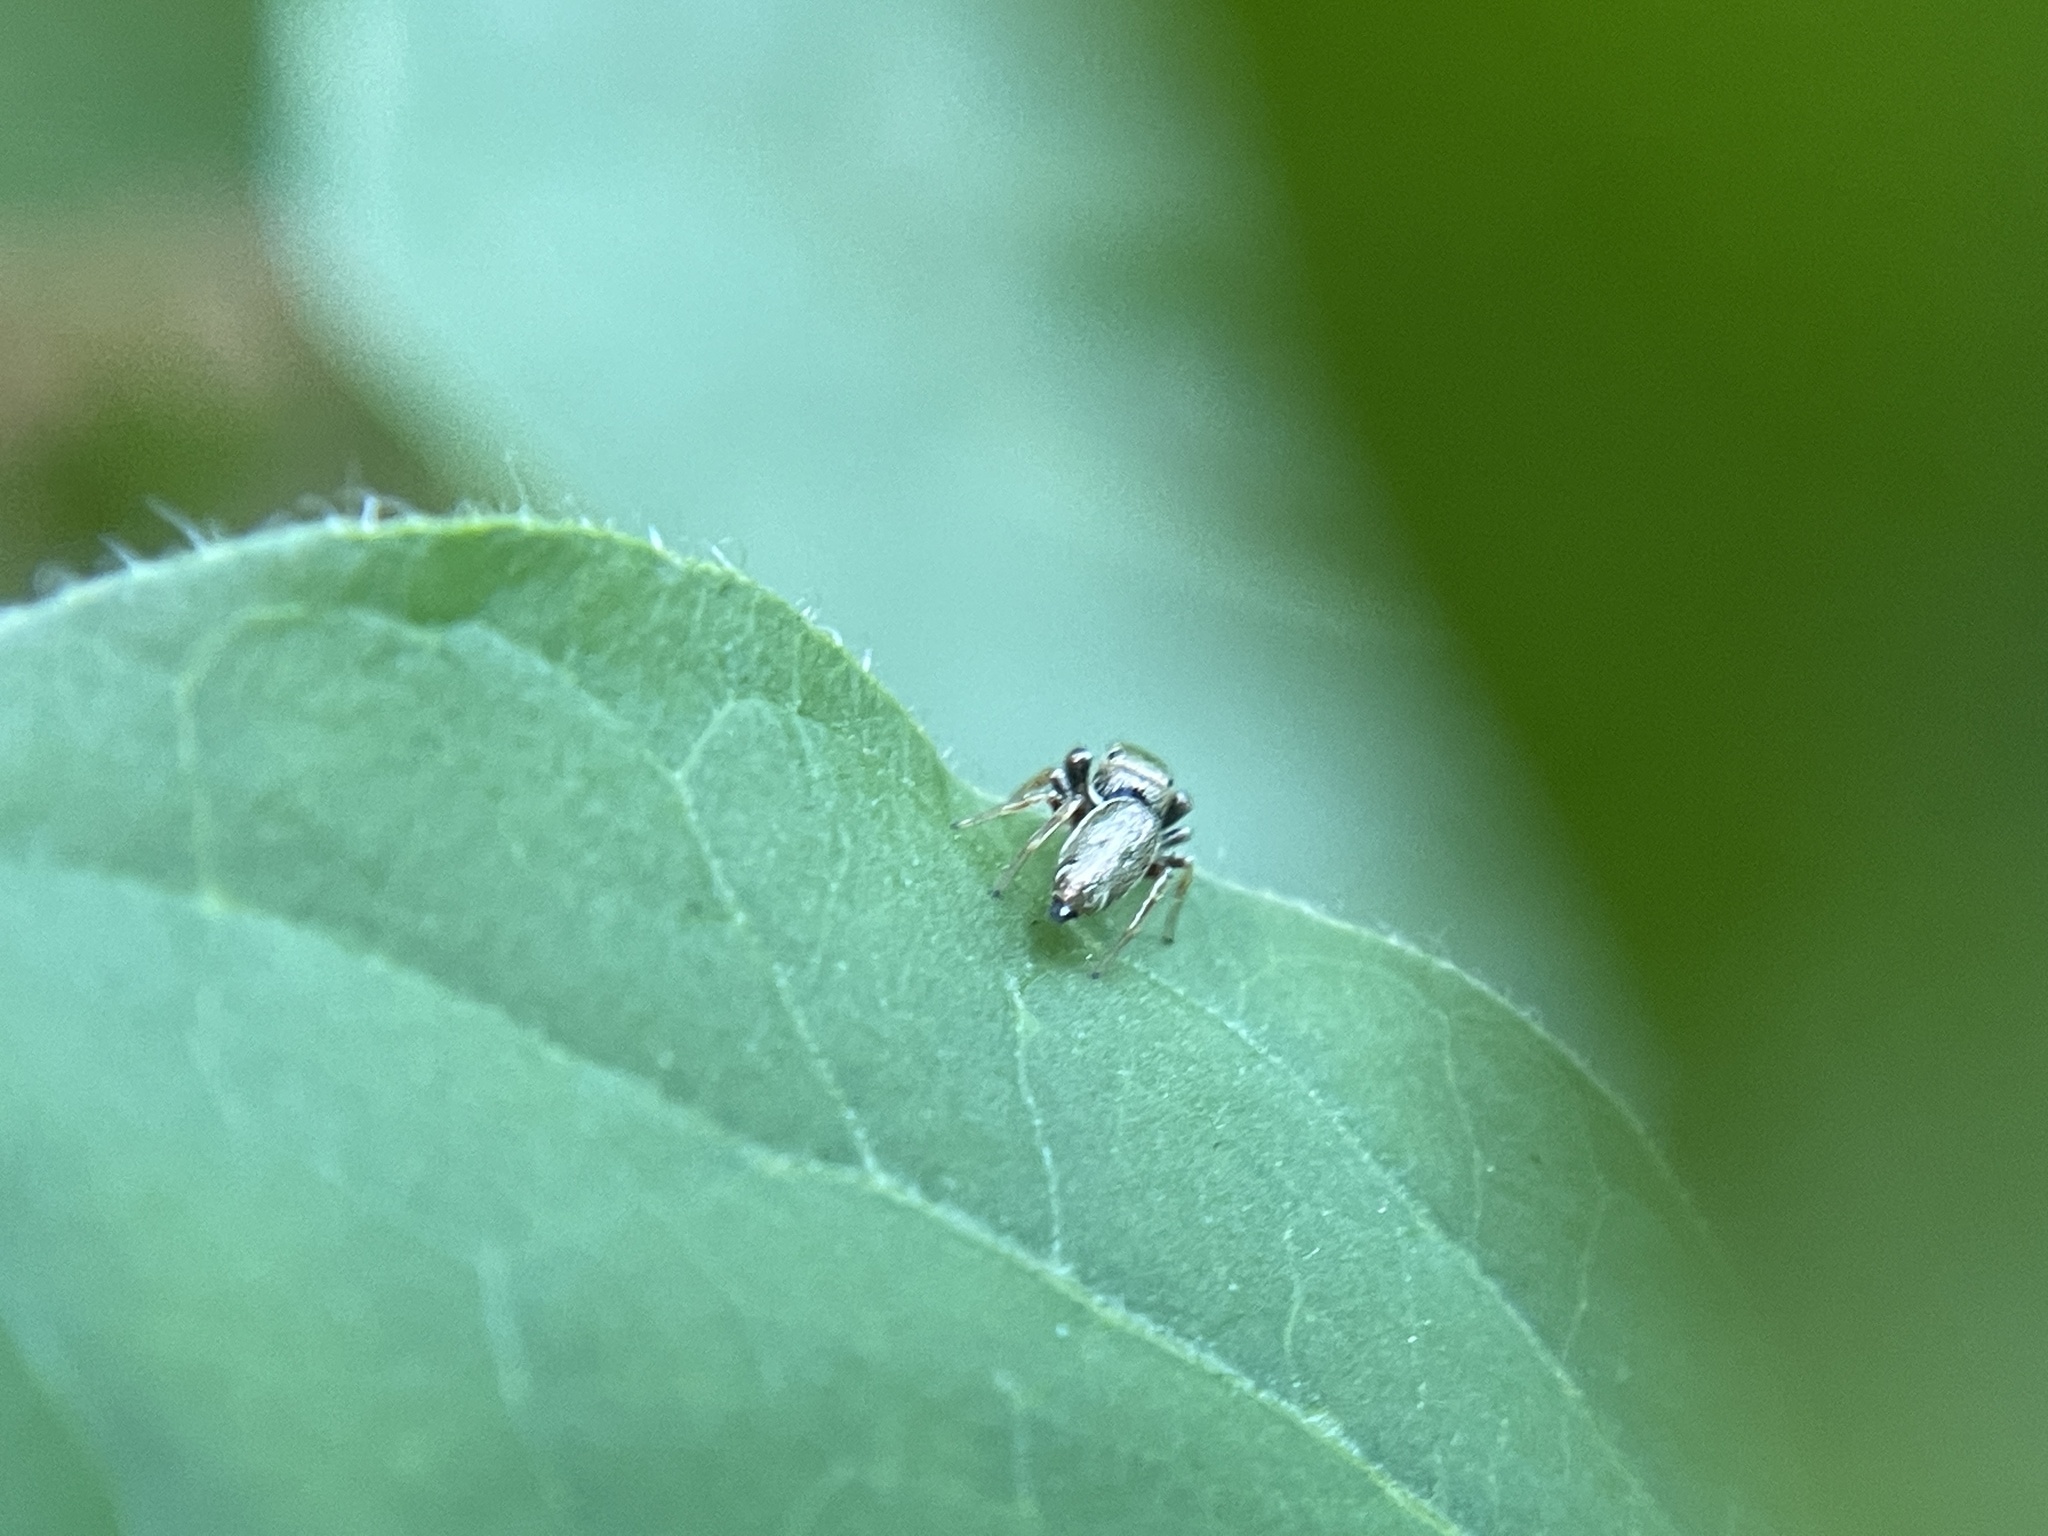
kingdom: Animalia
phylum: Arthropoda
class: Arachnida
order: Araneae
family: Salticidae
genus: Sassacus
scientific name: Sassacus vitis
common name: Jumping spiders
